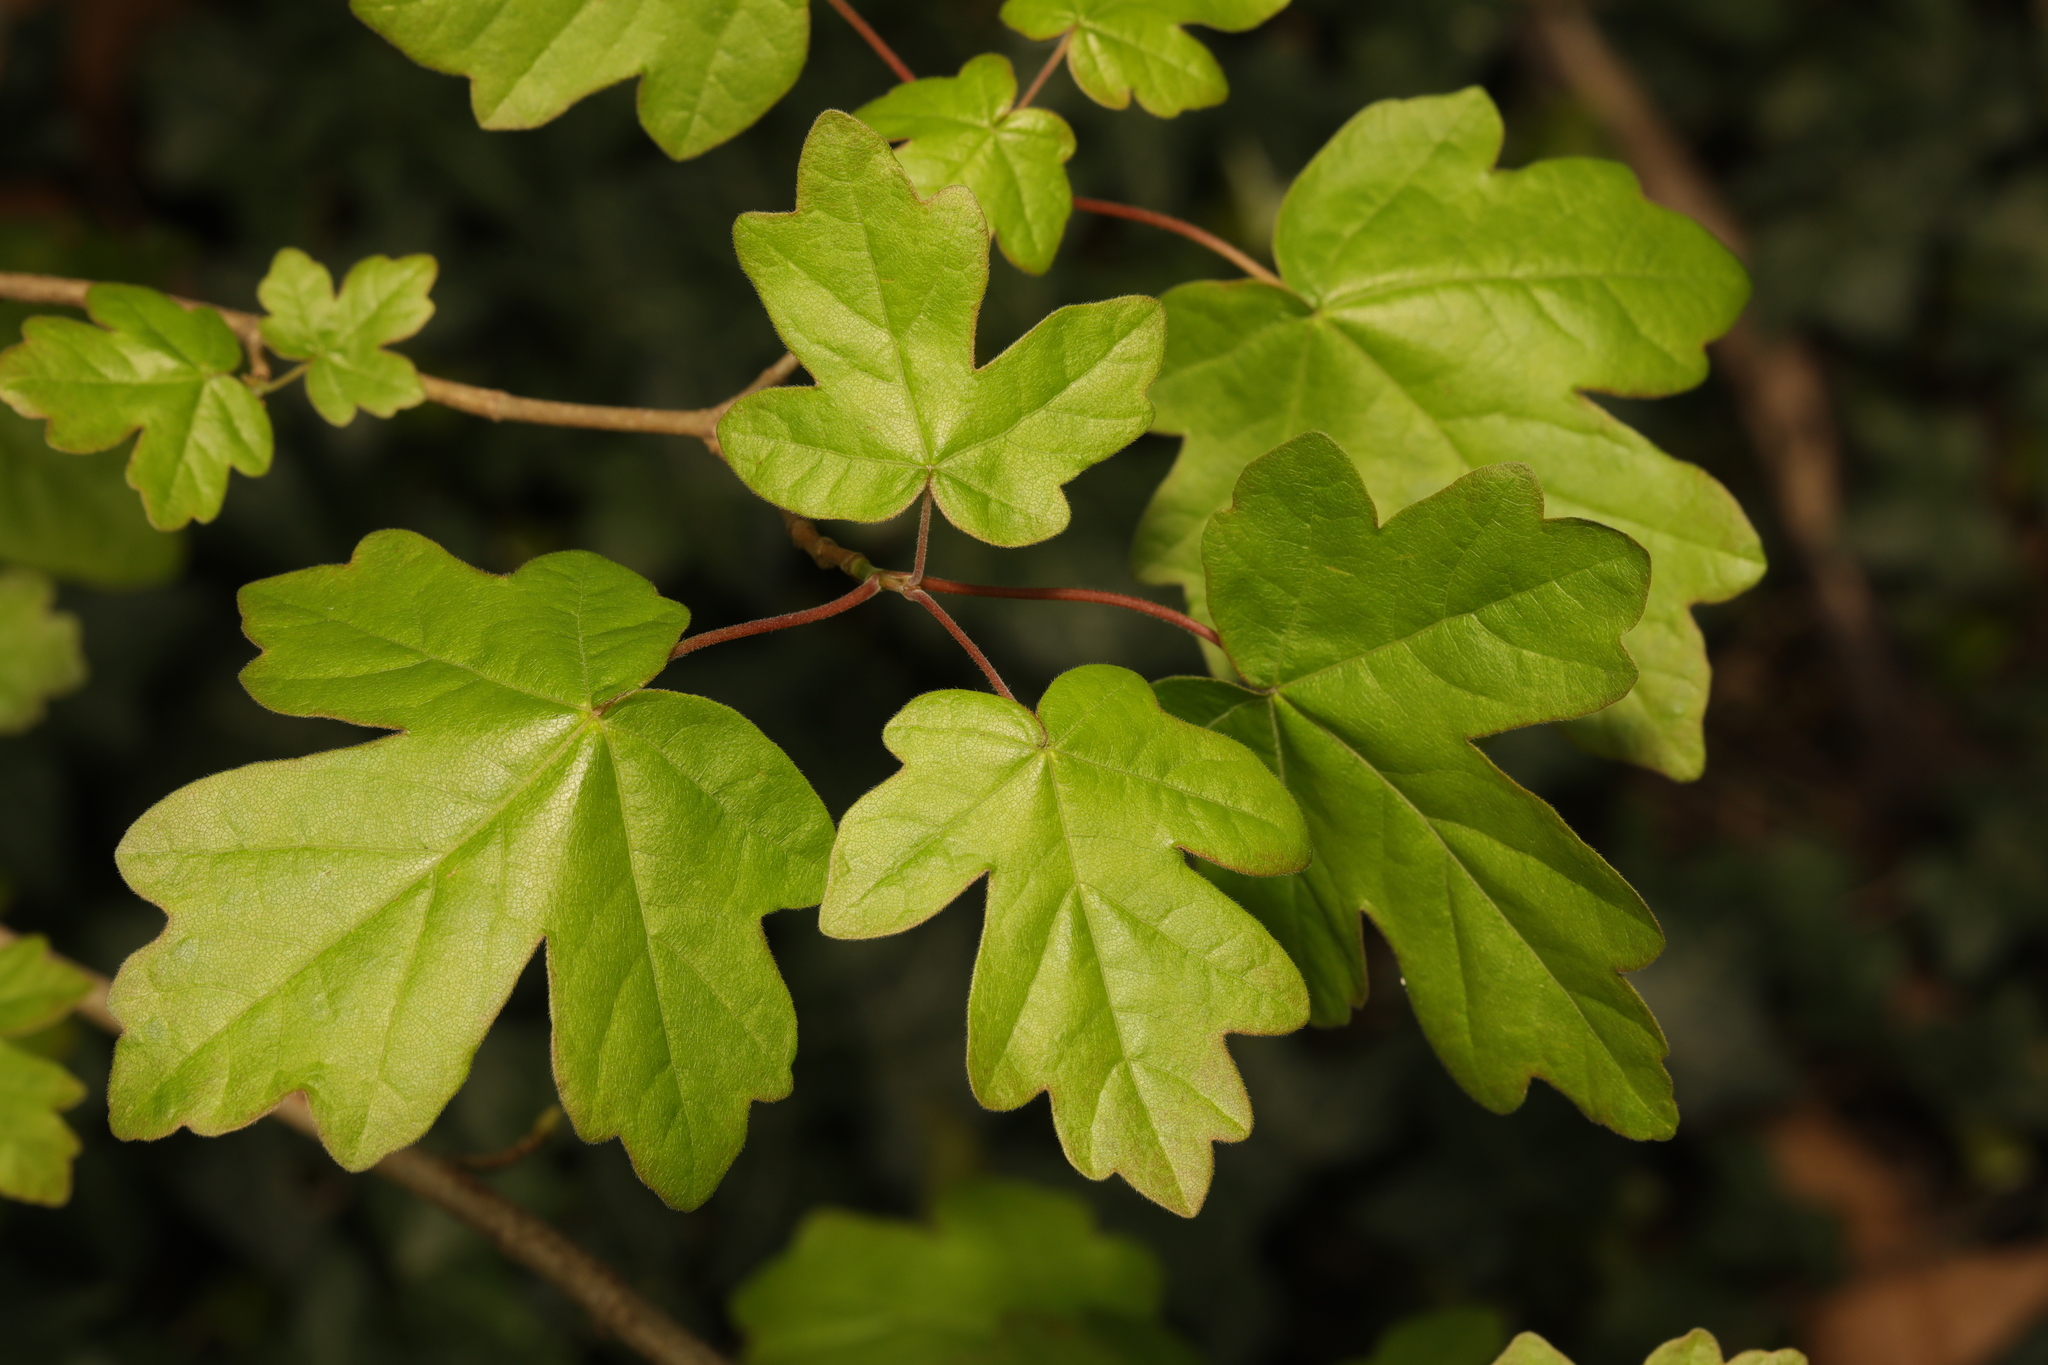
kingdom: Plantae
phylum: Tracheophyta
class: Magnoliopsida
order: Sapindales
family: Sapindaceae
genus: Acer
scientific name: Acer campestre
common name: Field maple
